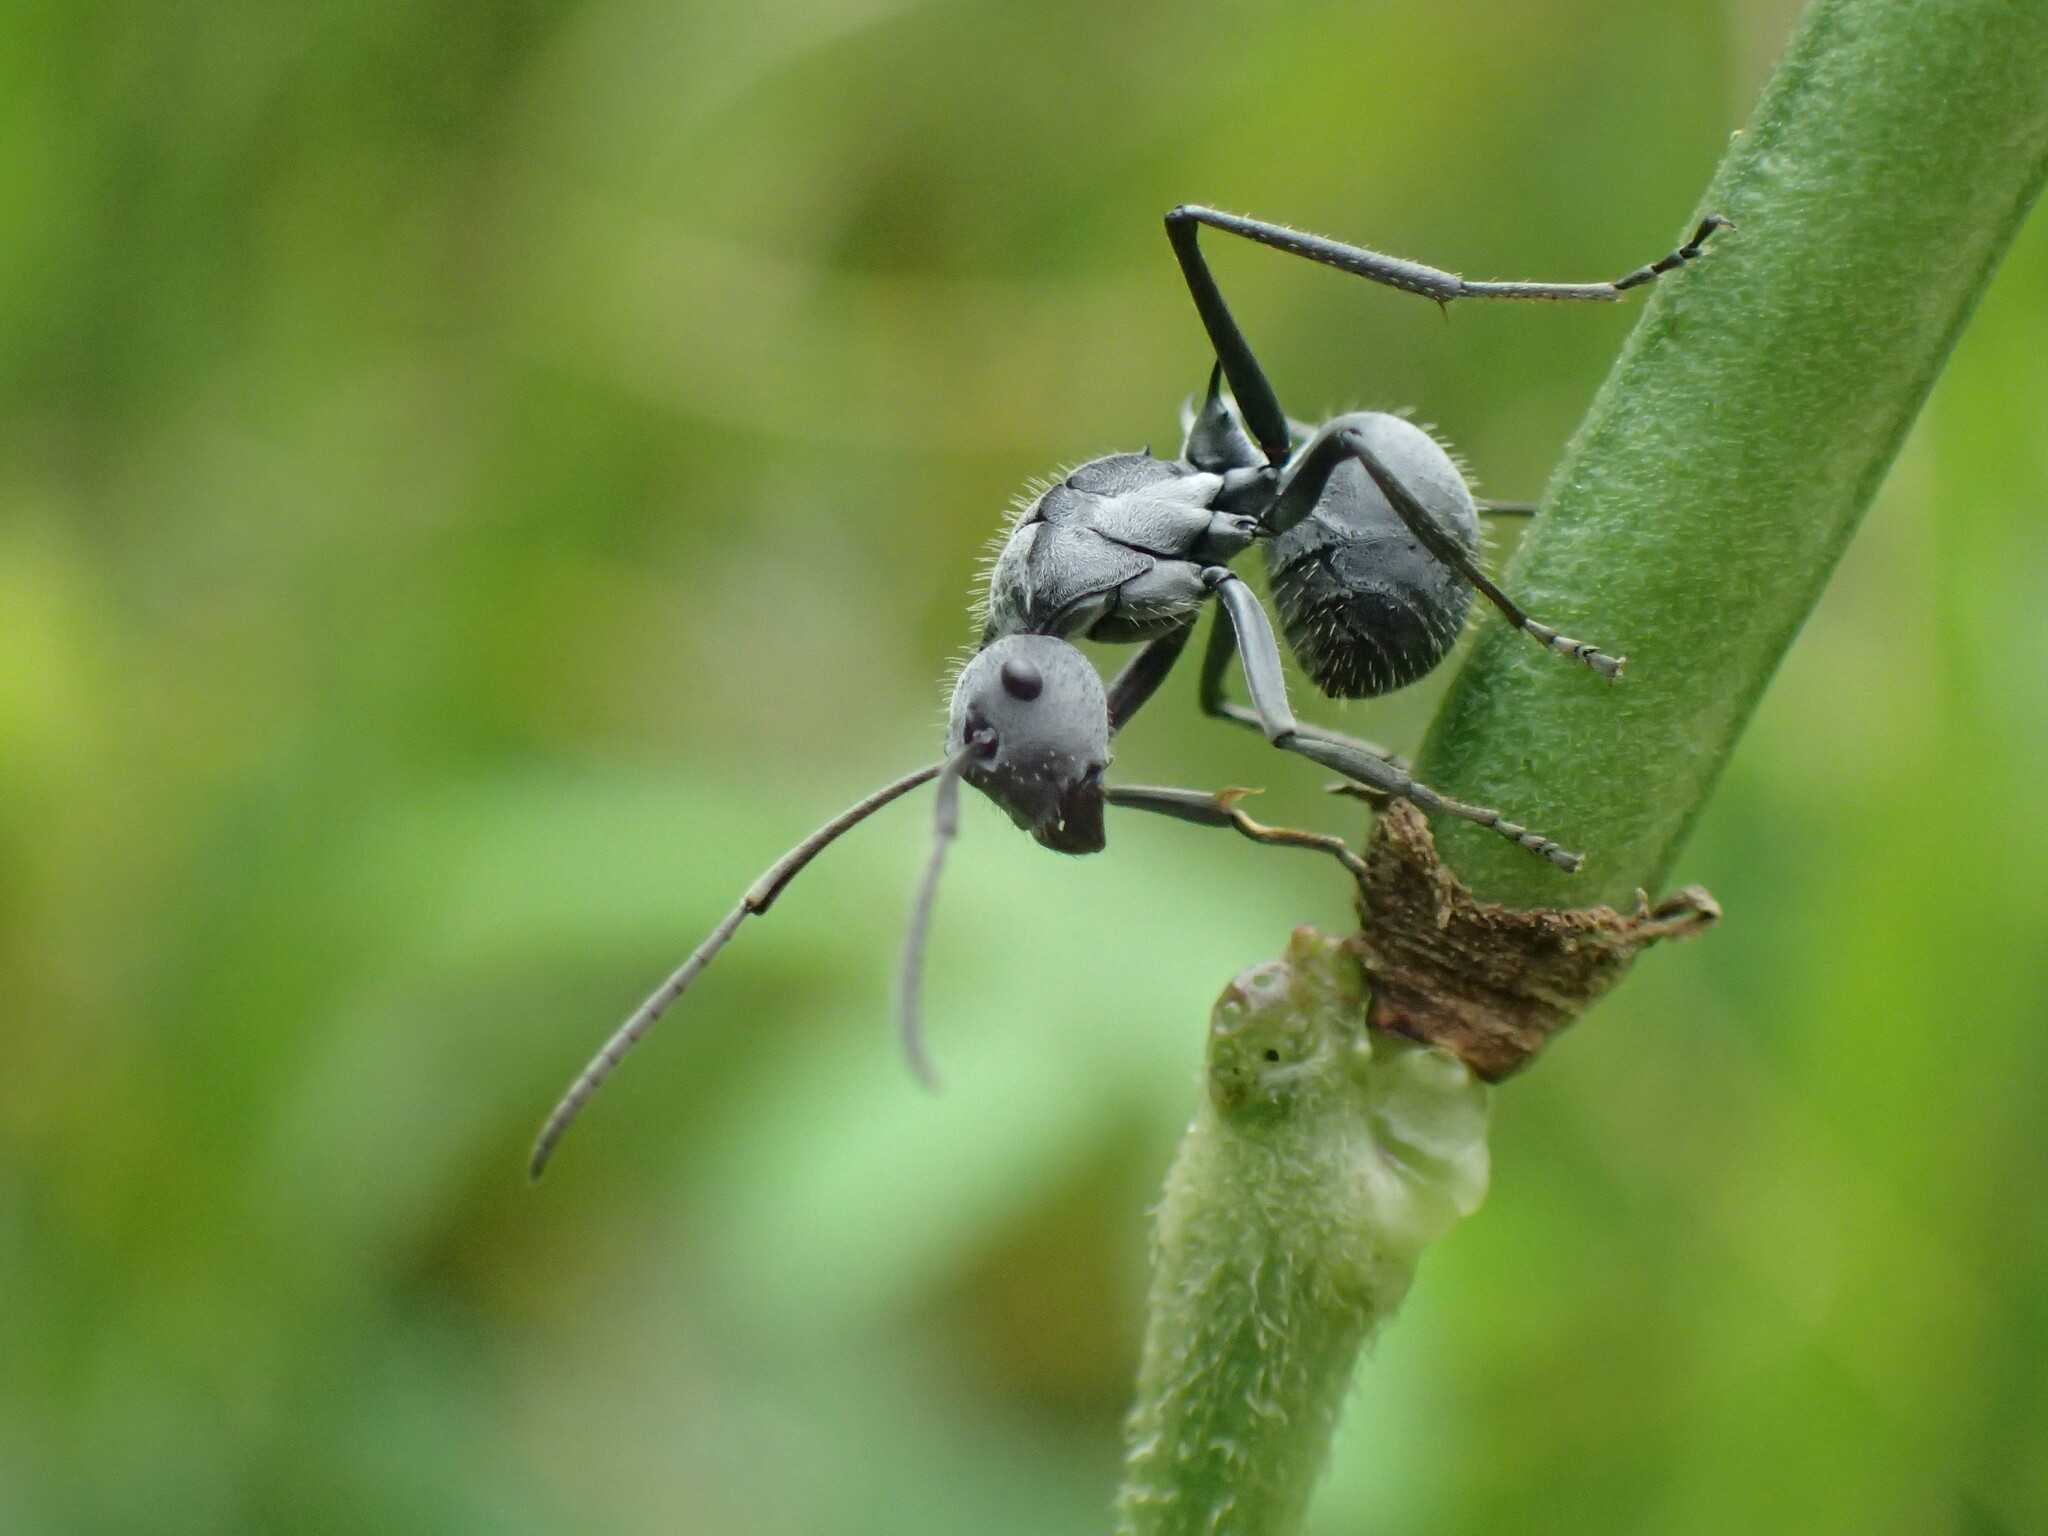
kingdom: Animalia
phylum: Arthropoda
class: Insecta
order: Hymenoptera
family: Formicidae
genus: Polyrhachis
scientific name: Polyrhachis schistacea
